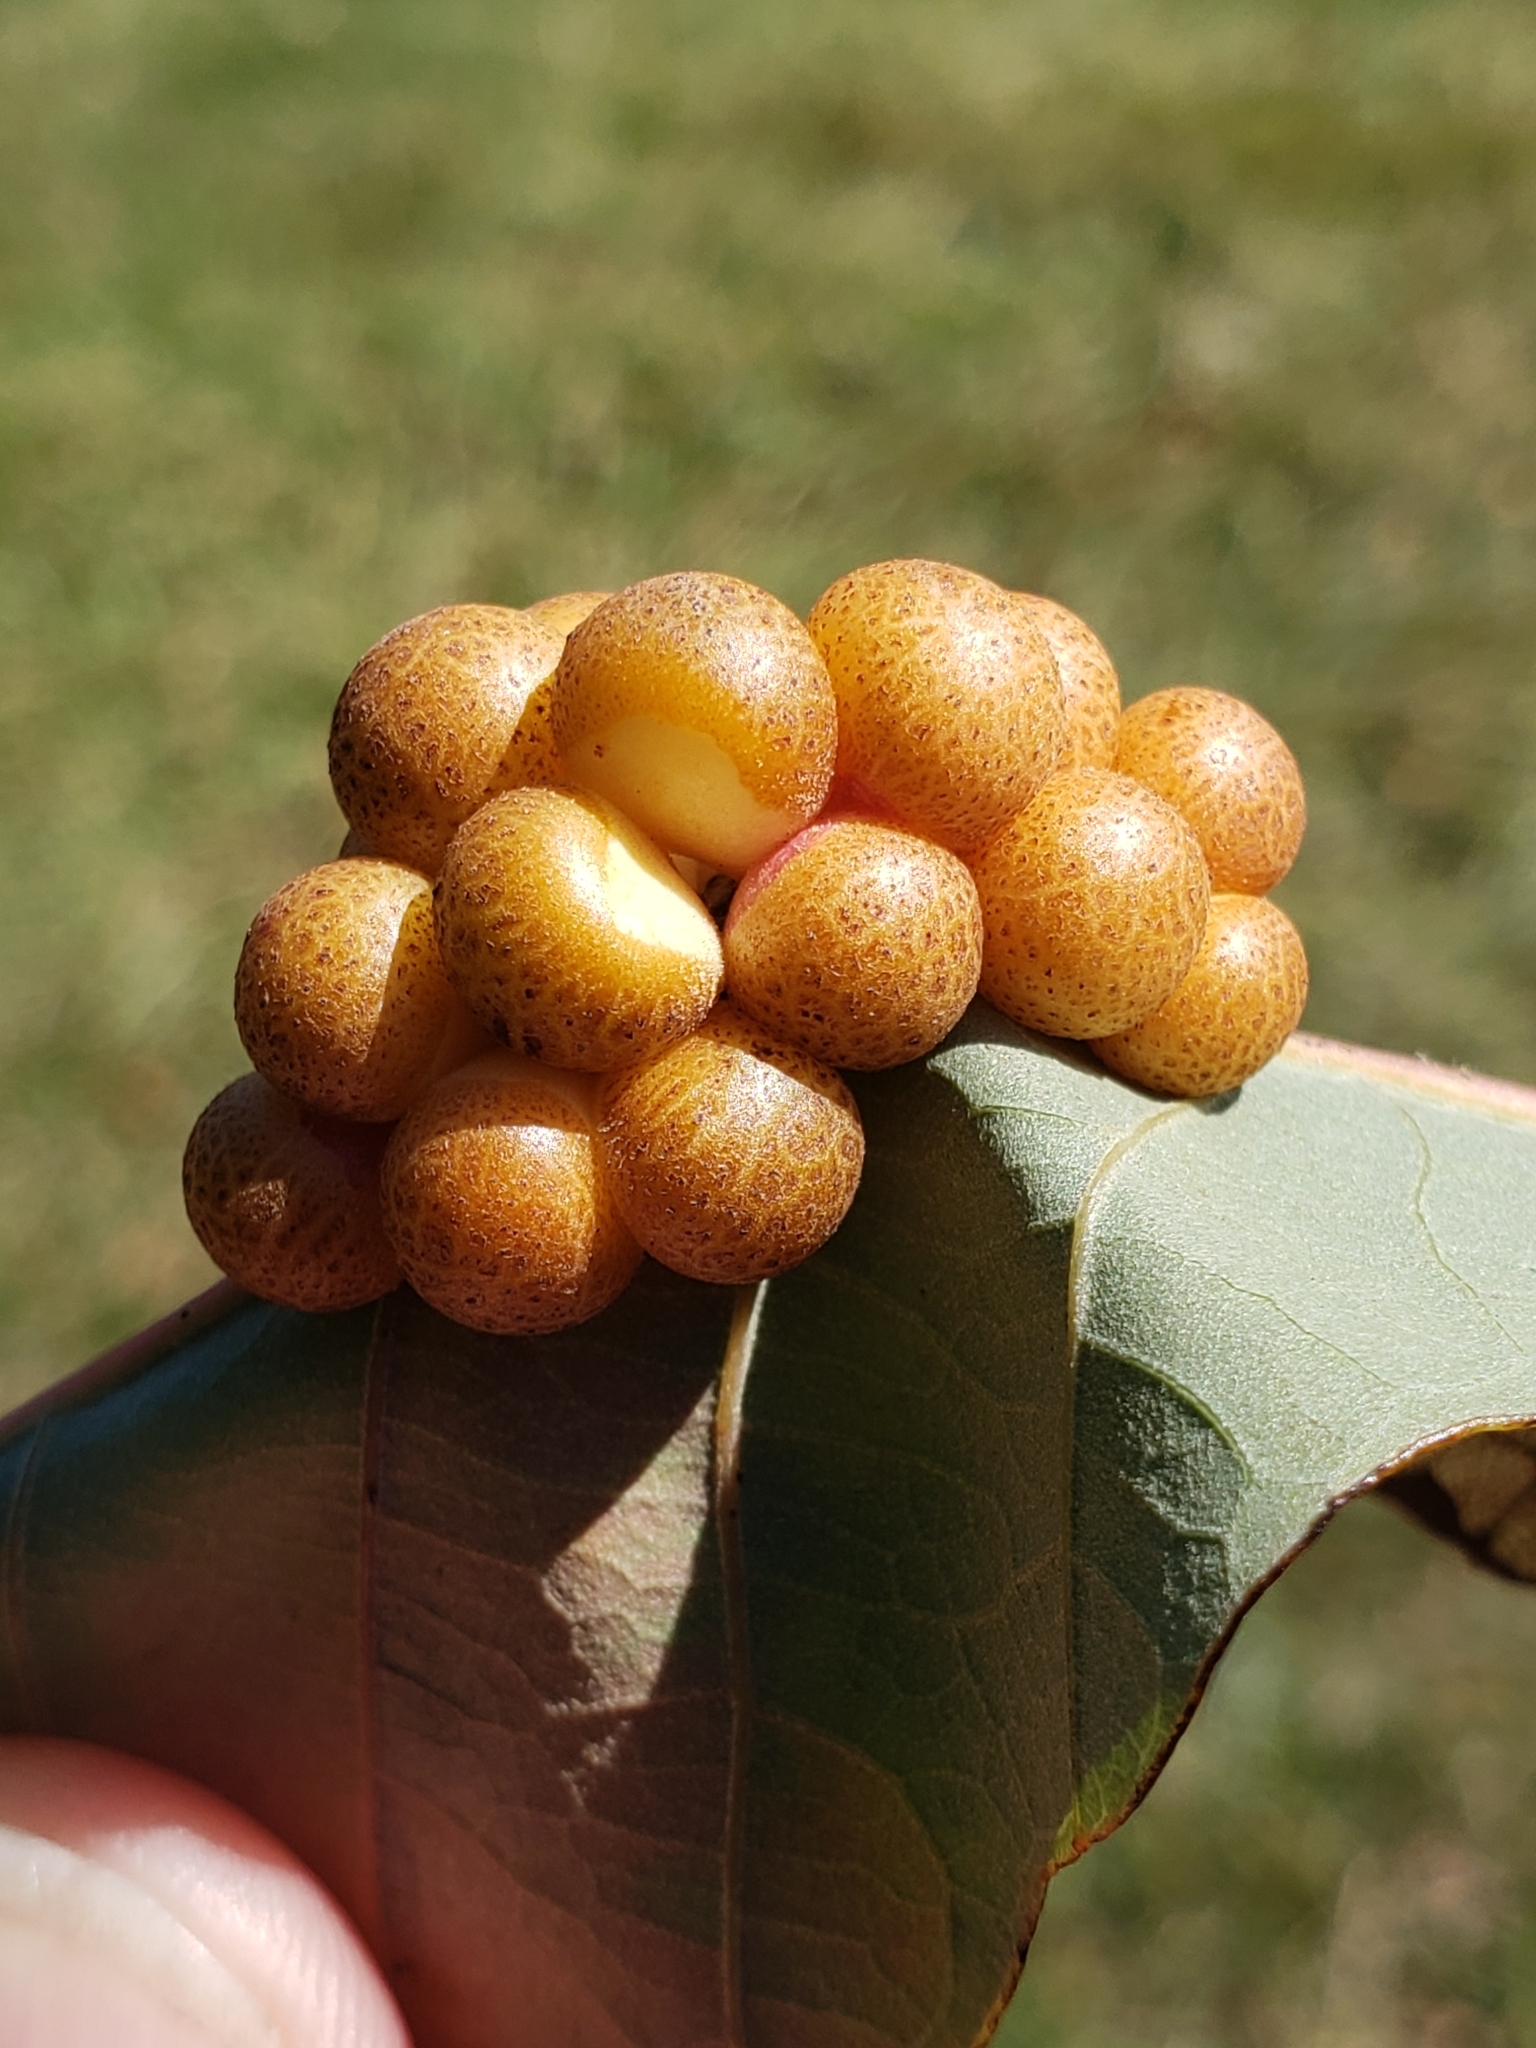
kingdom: Animalia
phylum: Arthropoda
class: Insecta
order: Hymenoptera
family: Cynipidae
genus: Andricus
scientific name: Andricus
